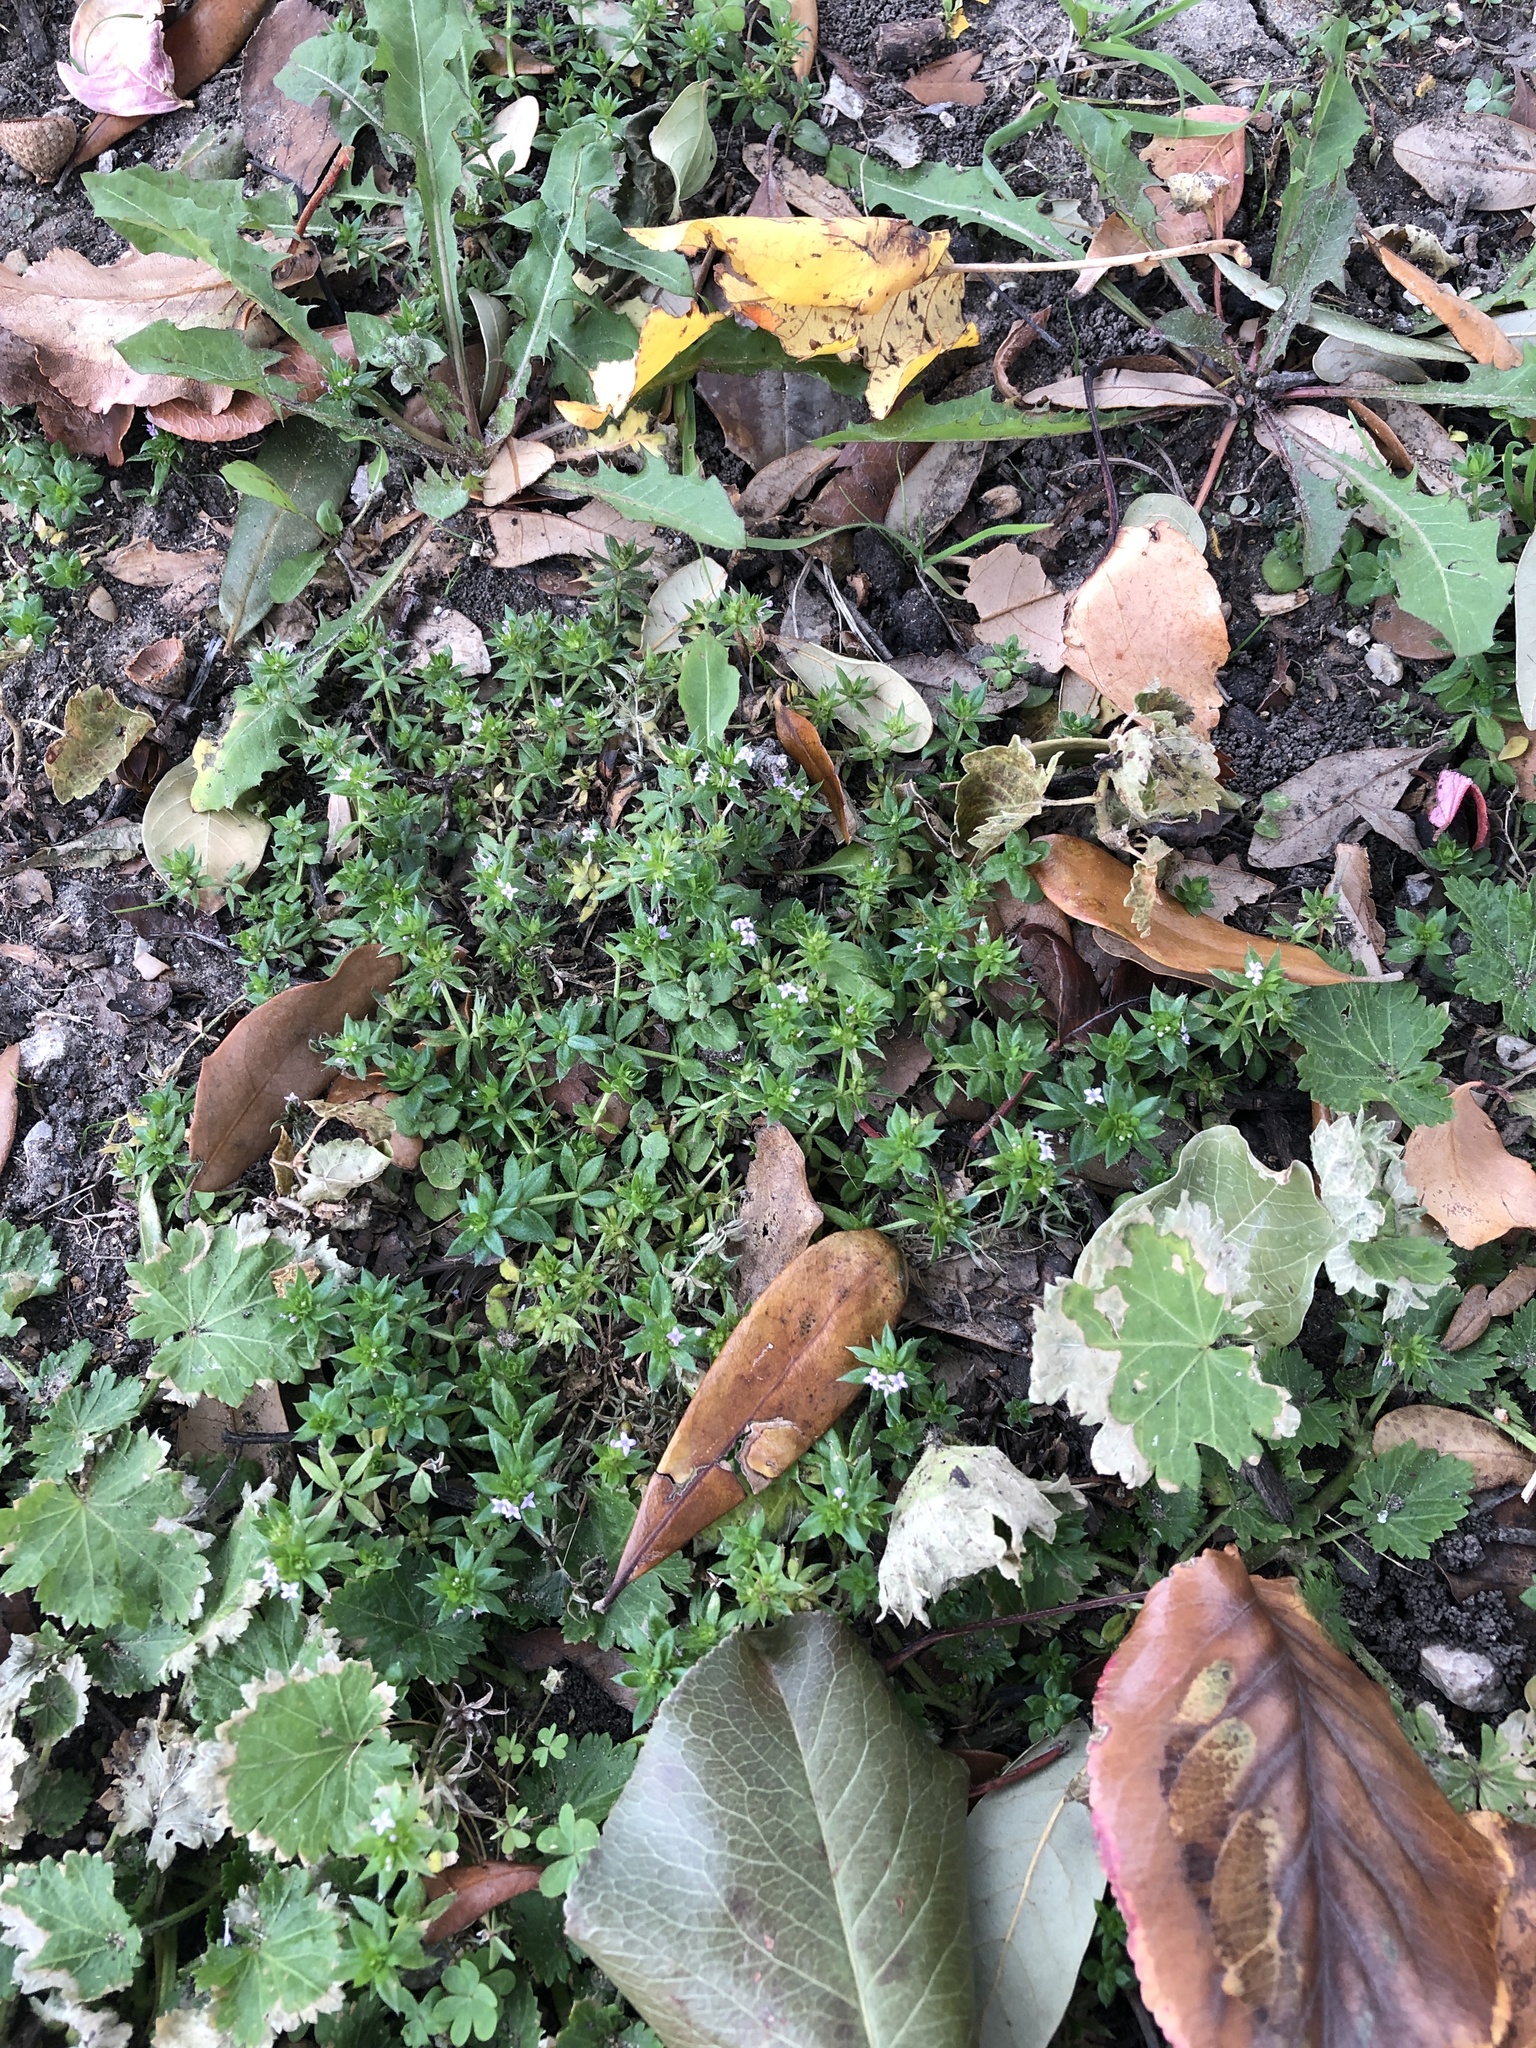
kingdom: Plantae
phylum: Tracheophyta
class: Magnoliopsida
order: Gentianales
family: Rubiaceae
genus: Sherardia
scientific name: Sherardia arvensis
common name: Field madder
